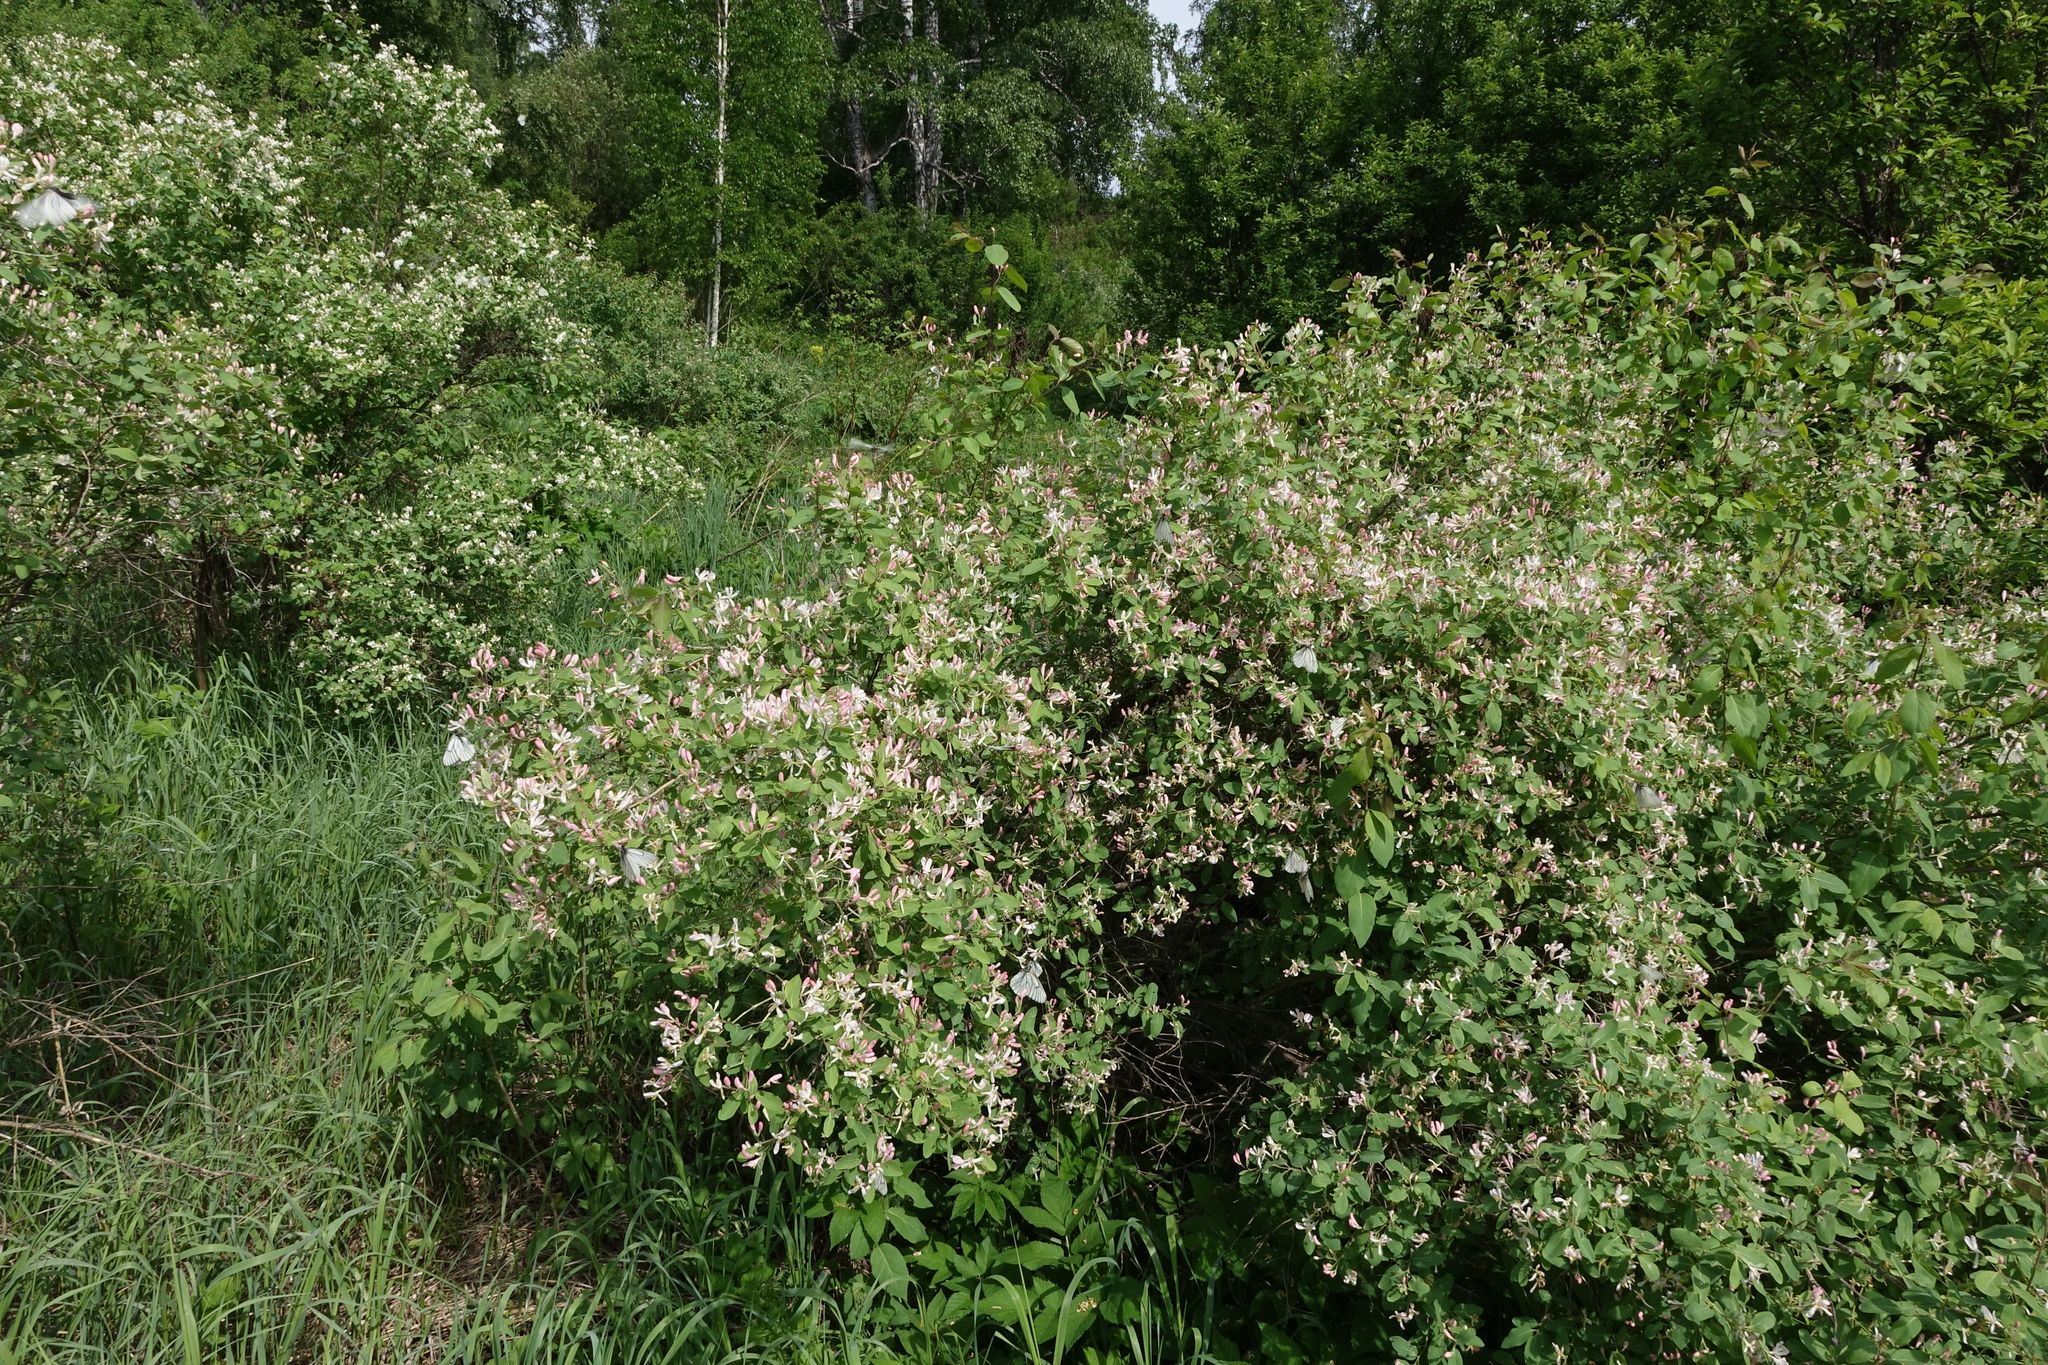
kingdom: Plantae
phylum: Tracheophyta
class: Magnoliopsida
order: Dipsacales
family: Caprifoliaceae
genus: Lonicera
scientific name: Lonicera tatarica
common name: Tatarian honeysuckle
